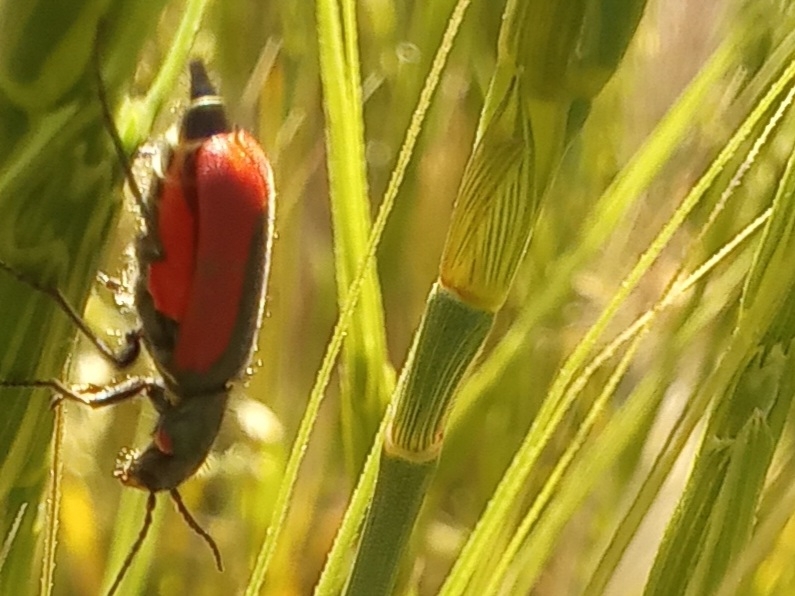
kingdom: Animalia
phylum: Arthropoda
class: Insecta
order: Coleoptera
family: Melyridae
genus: Malachius
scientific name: Malachius aeneus
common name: Scarlet malachite beetle
